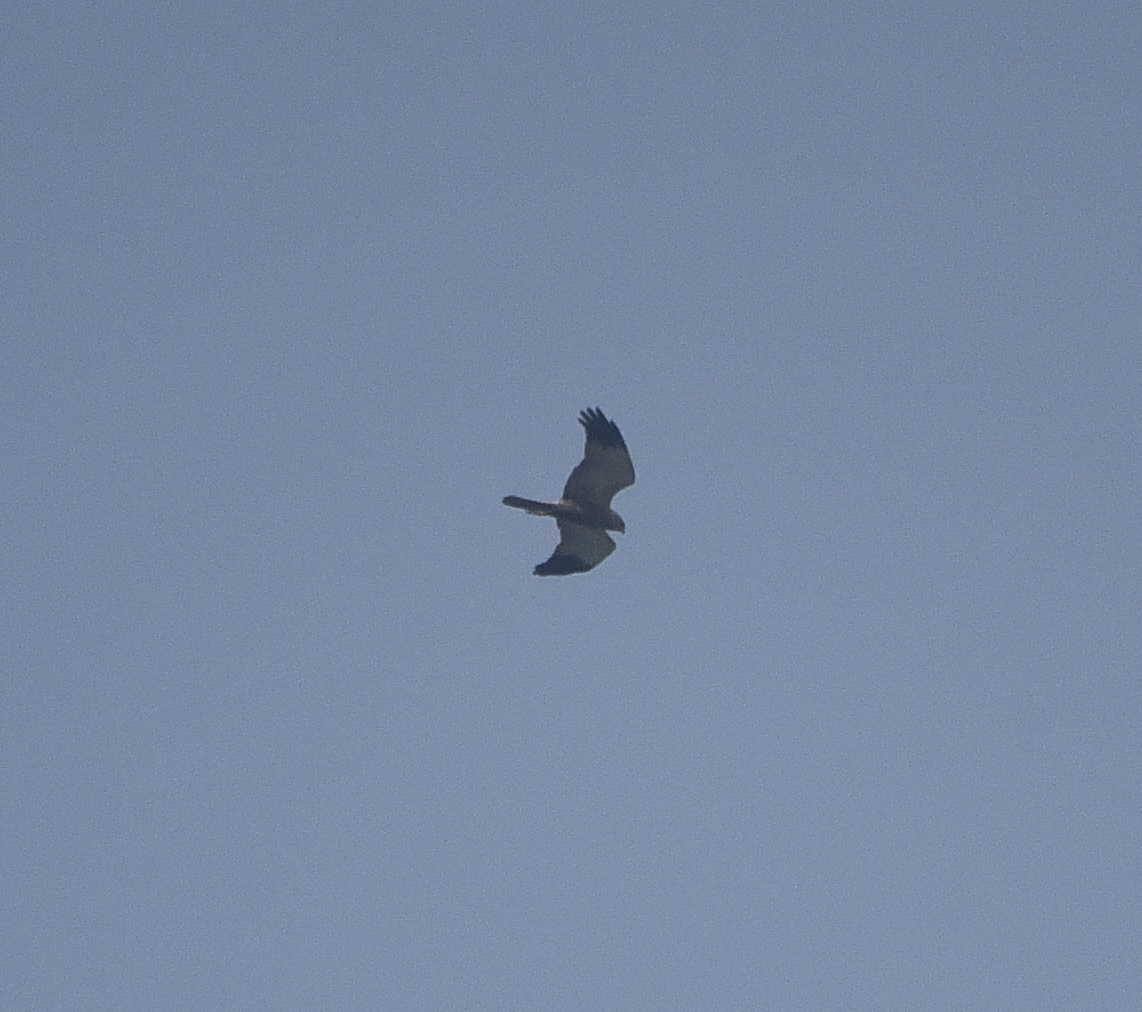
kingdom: Animalia
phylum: Chordata
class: Aves
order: Accipitriformes
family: Accipitridae
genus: Circus
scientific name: Circus aeruginosus
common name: Western marsh harrier
